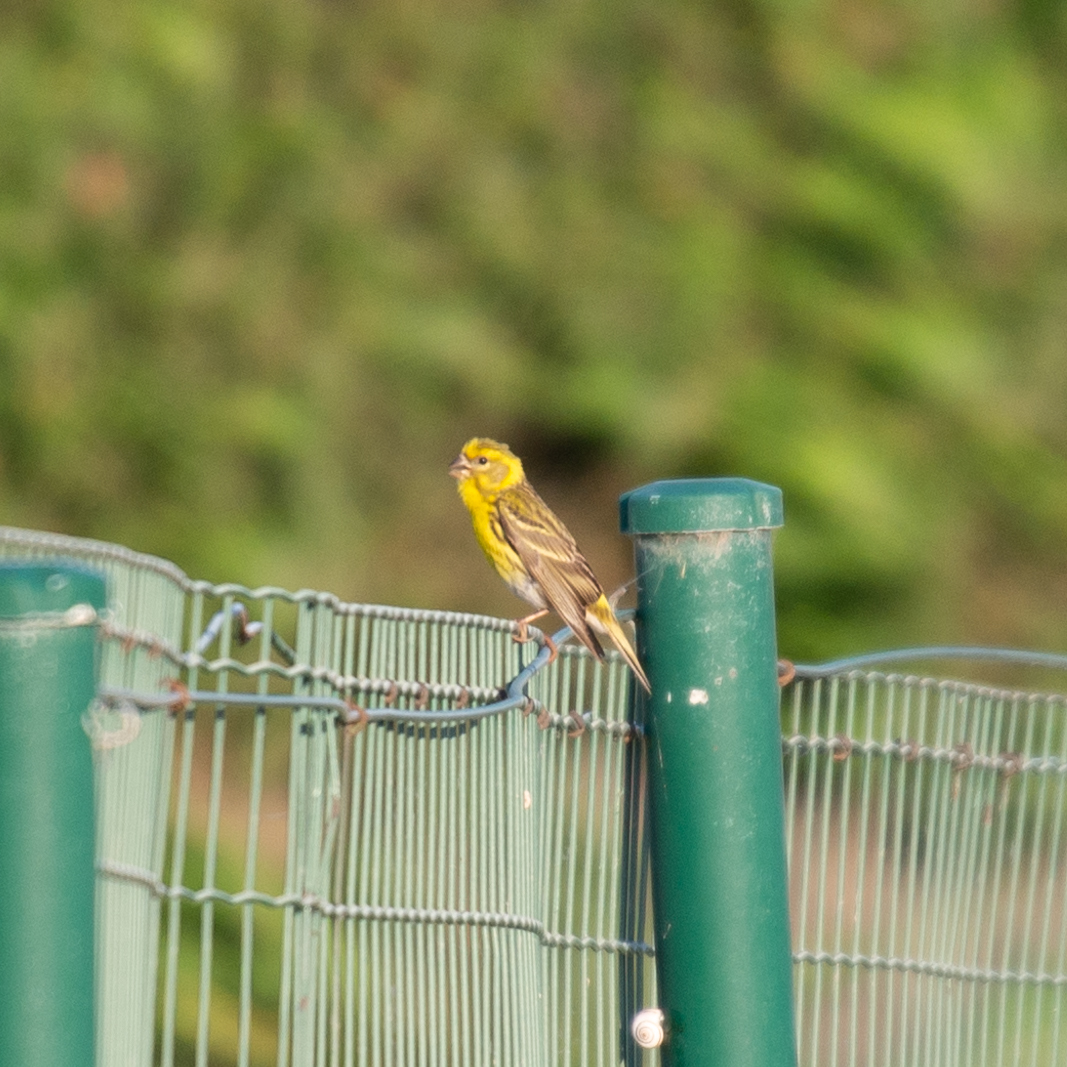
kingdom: Animalia
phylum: Chordata
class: Aves
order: Passeriformes
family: Fringillidae
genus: Serinus
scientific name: Serinus serinus
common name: European serin
